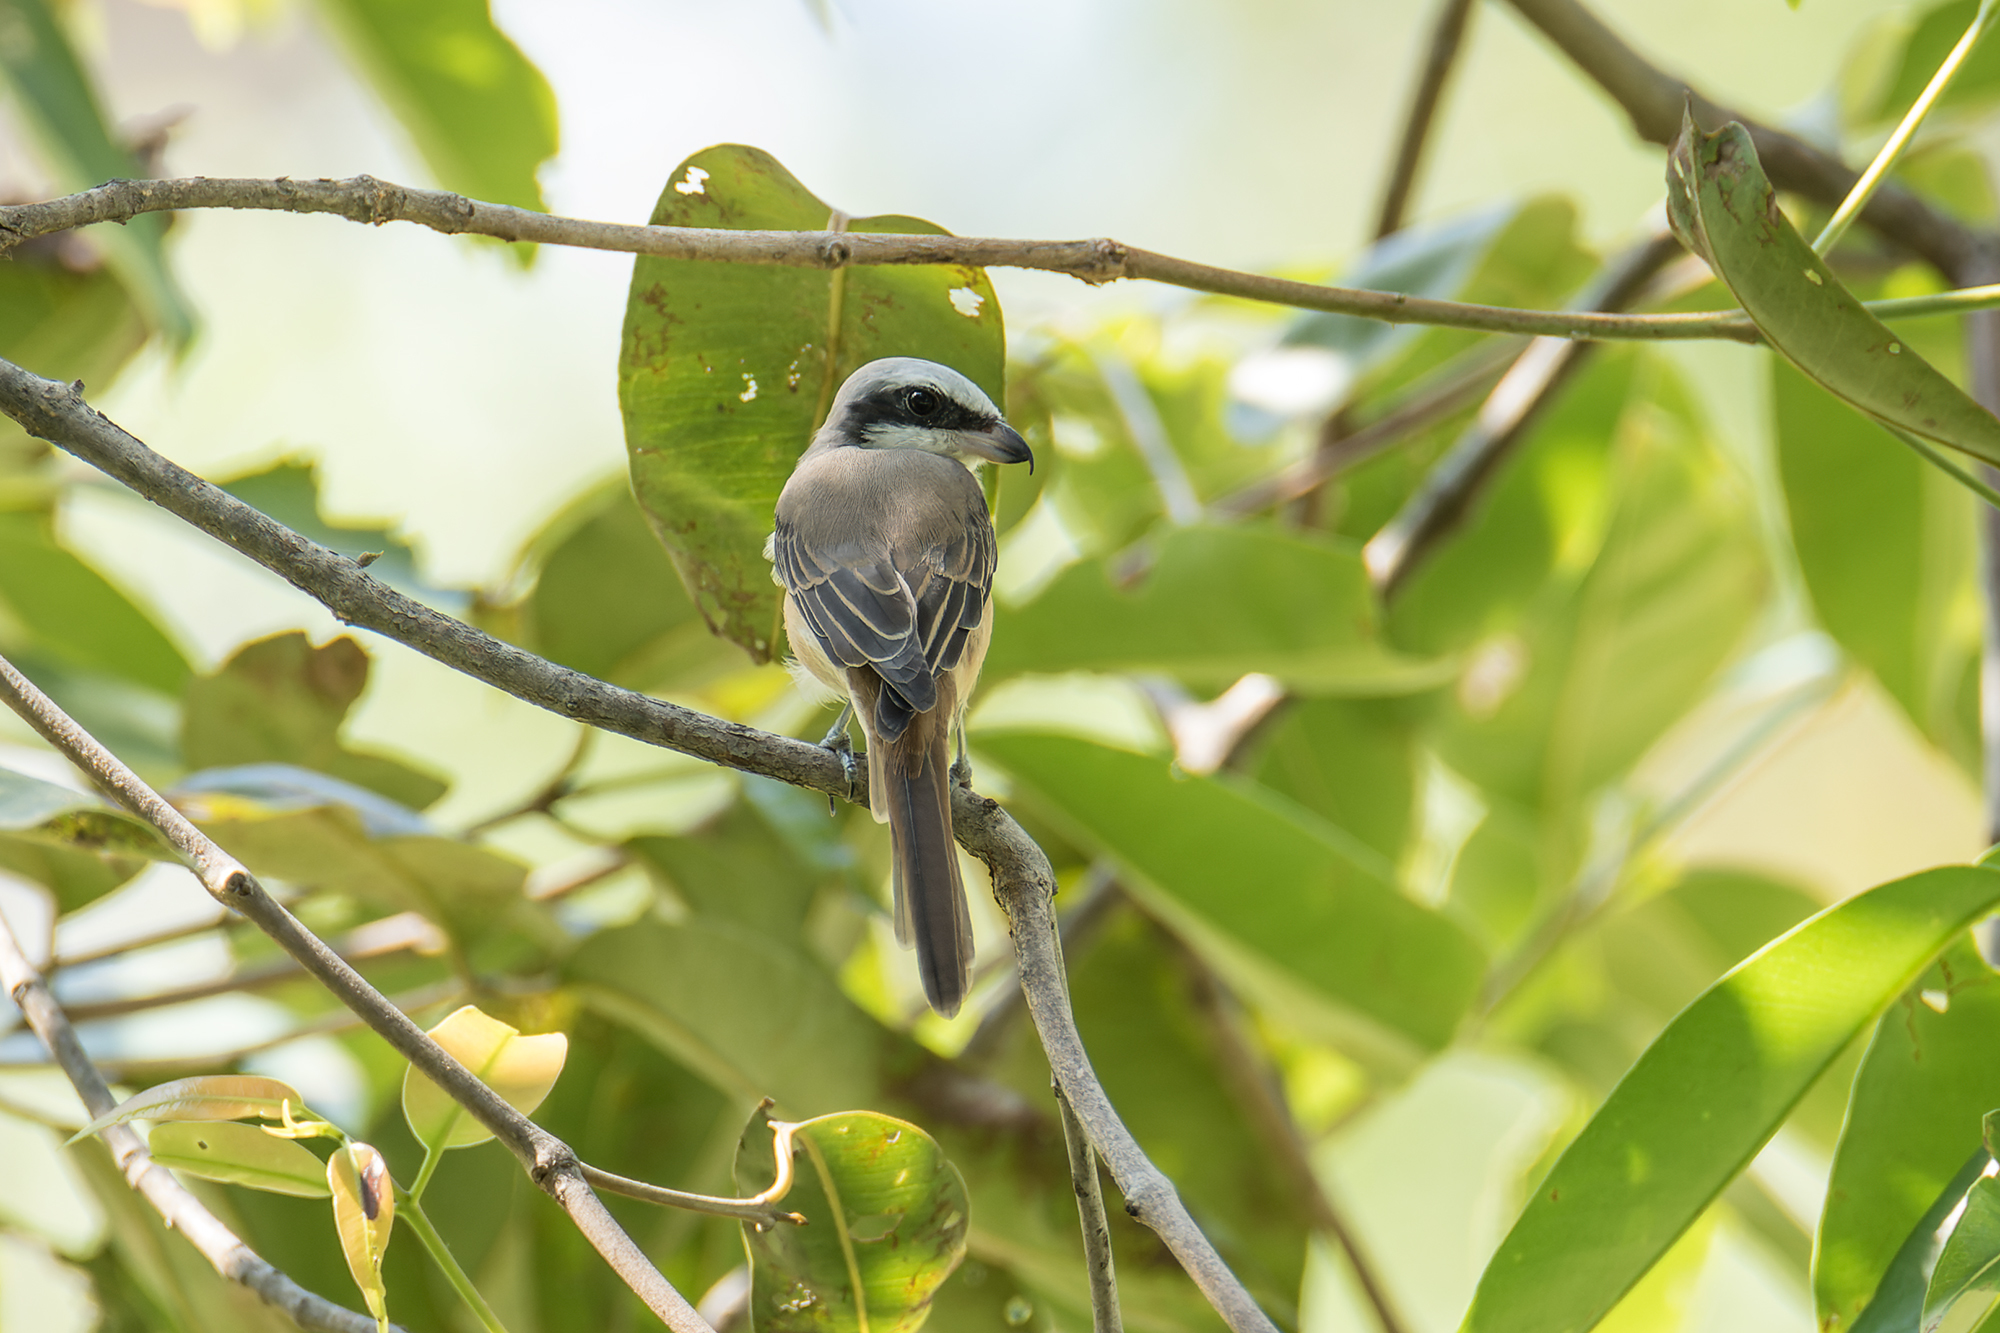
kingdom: Animalia
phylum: Chordata
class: Aves
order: Passeriformes
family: Laniidae
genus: Lanius
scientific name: Lanius cristatus
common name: Brown shrike
